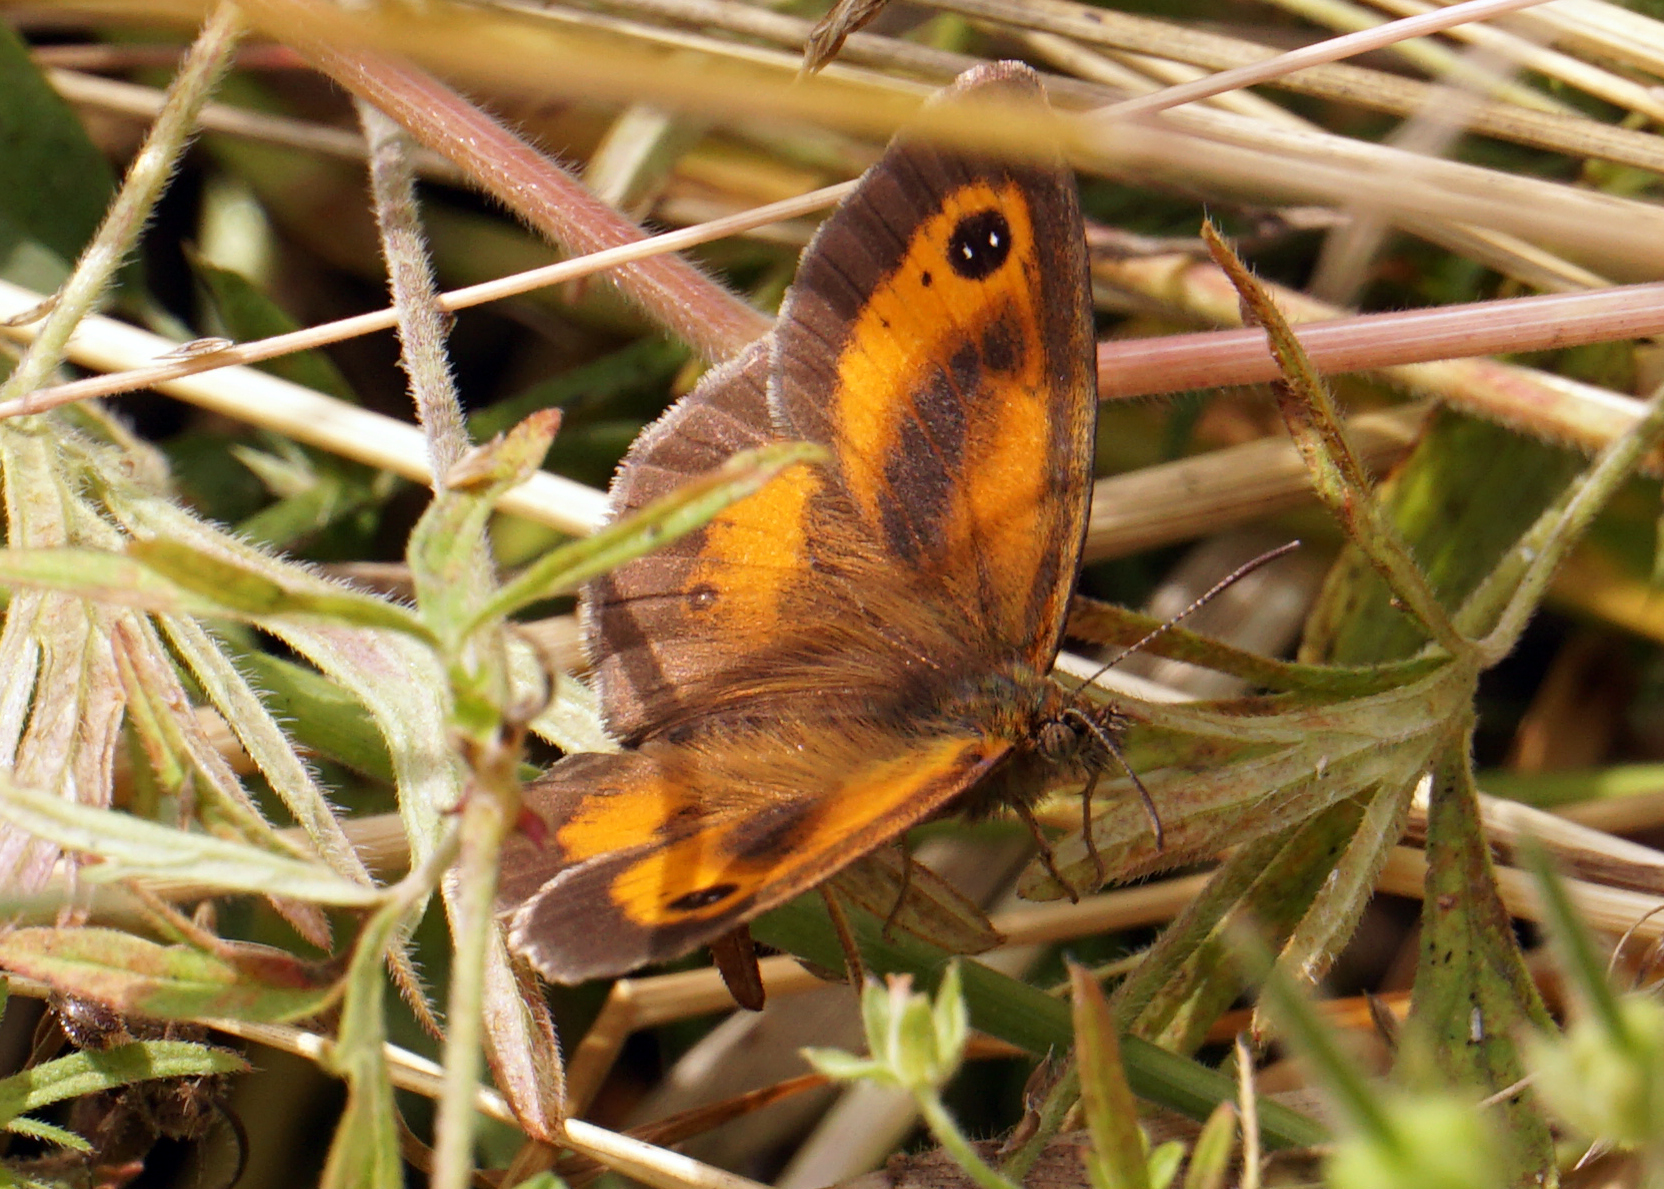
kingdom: Animalia
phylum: Arthropoda
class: Insecta
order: Lepidoptera
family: Nymphalidae
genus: Pyronia
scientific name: Pyronia tithonus
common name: Gatekeeper
